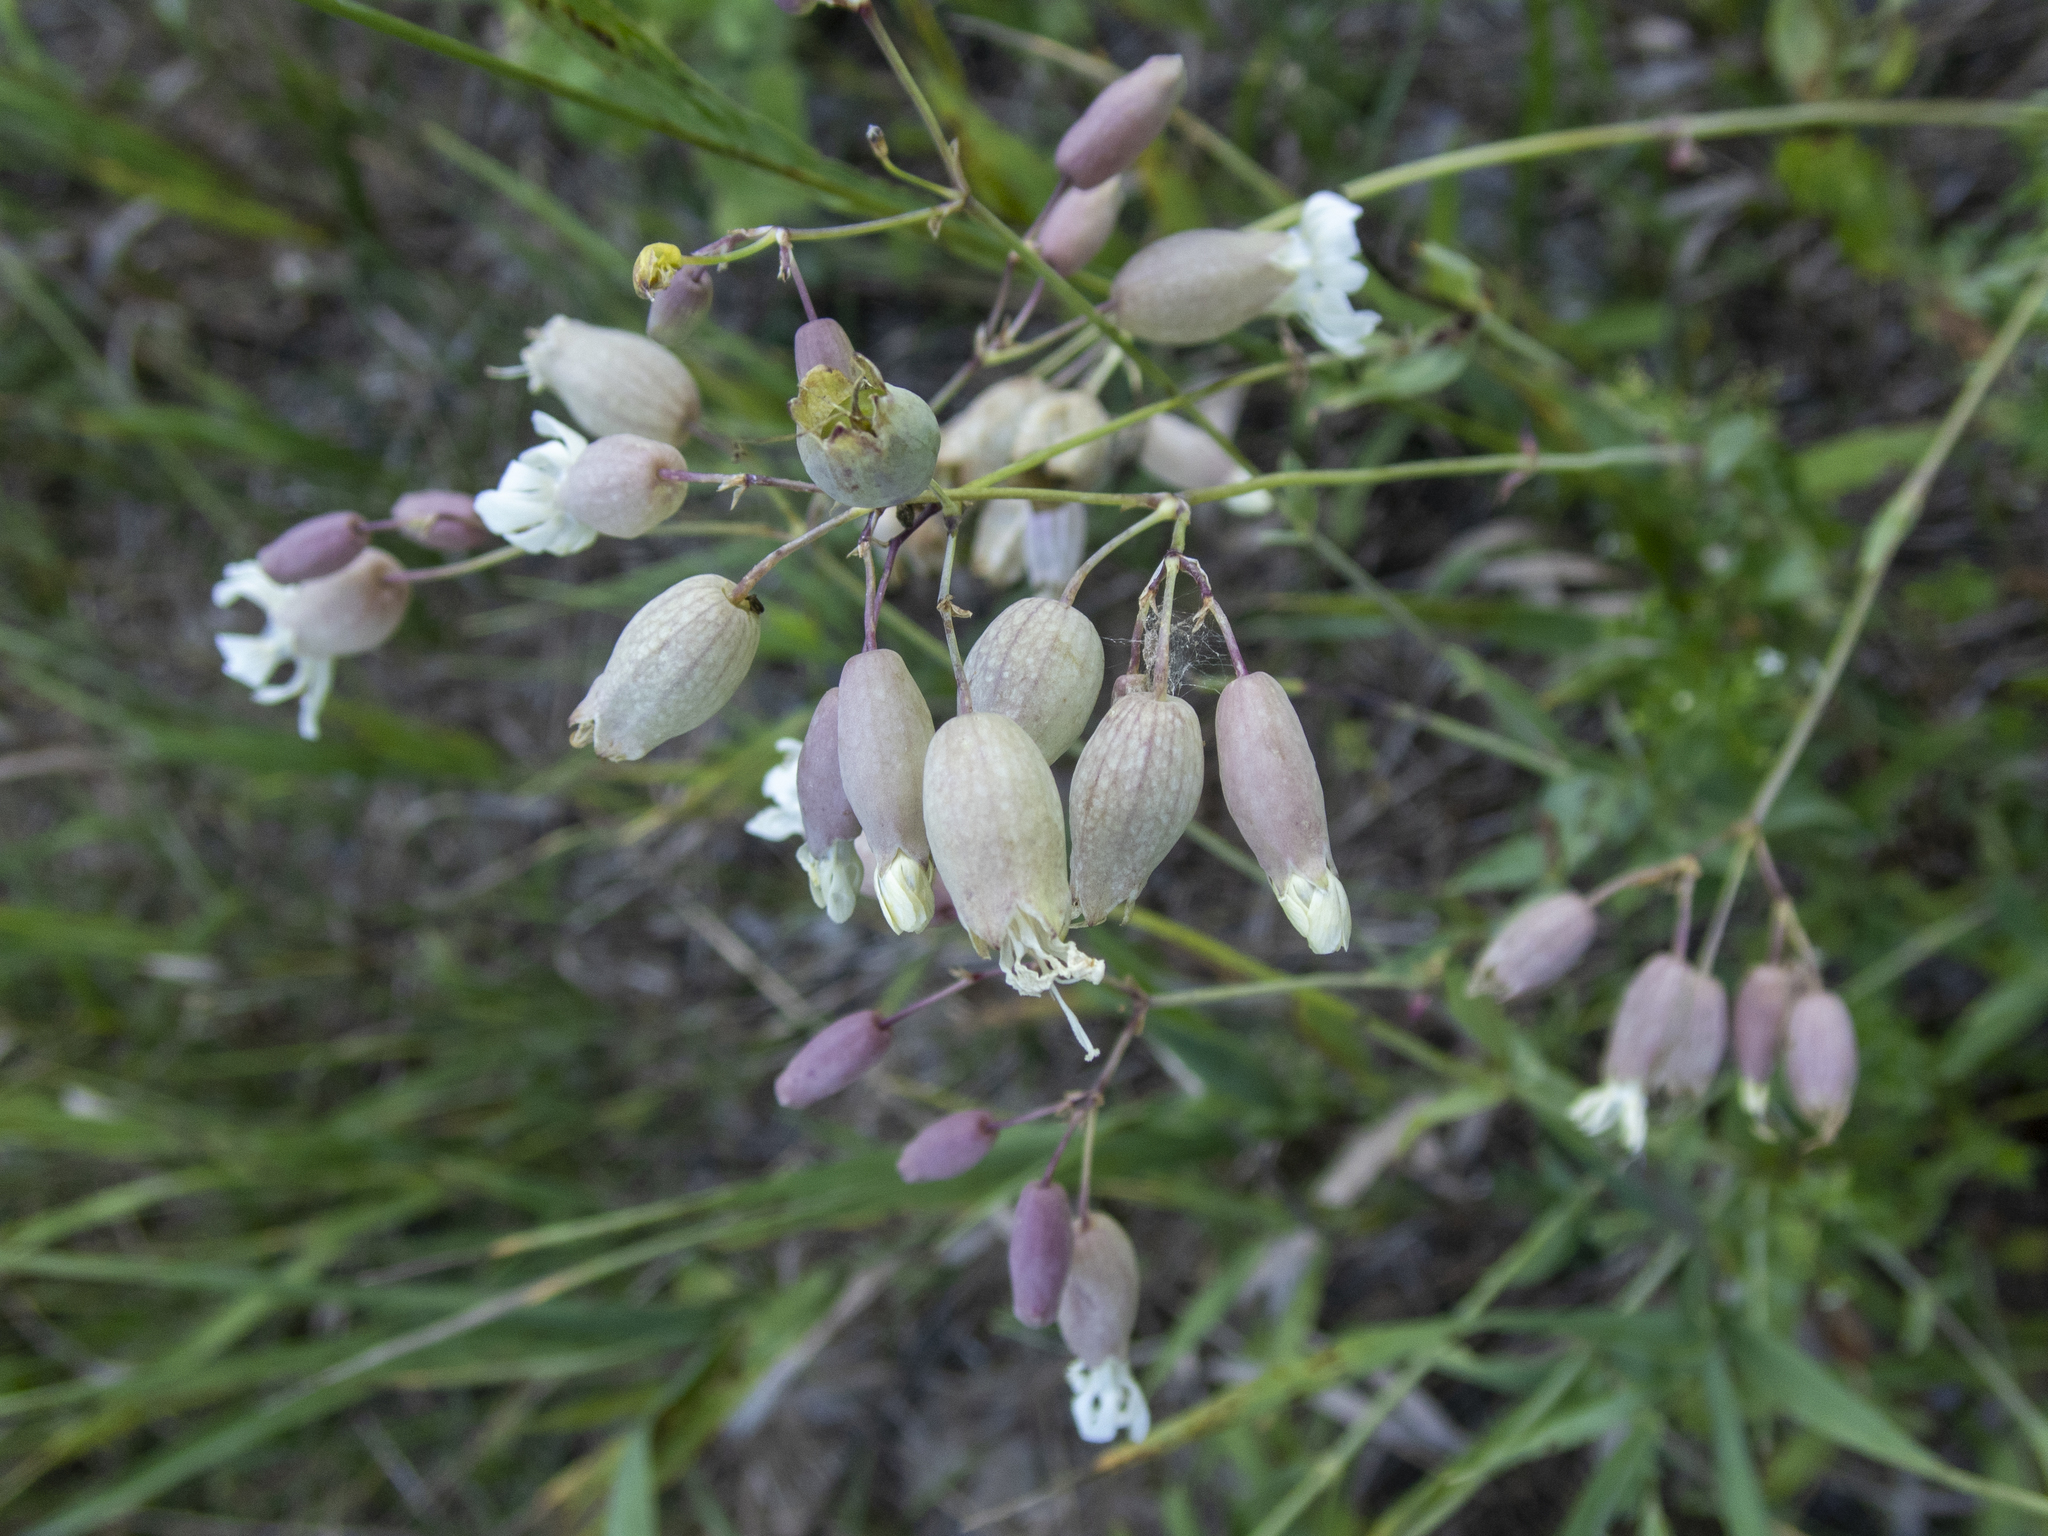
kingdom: Plantae
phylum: Tracheophyta
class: Magnoliopsida
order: Caryophyllales
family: Caryophyllaceae
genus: Silene
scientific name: Silene vulgaris
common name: Bladder campion
